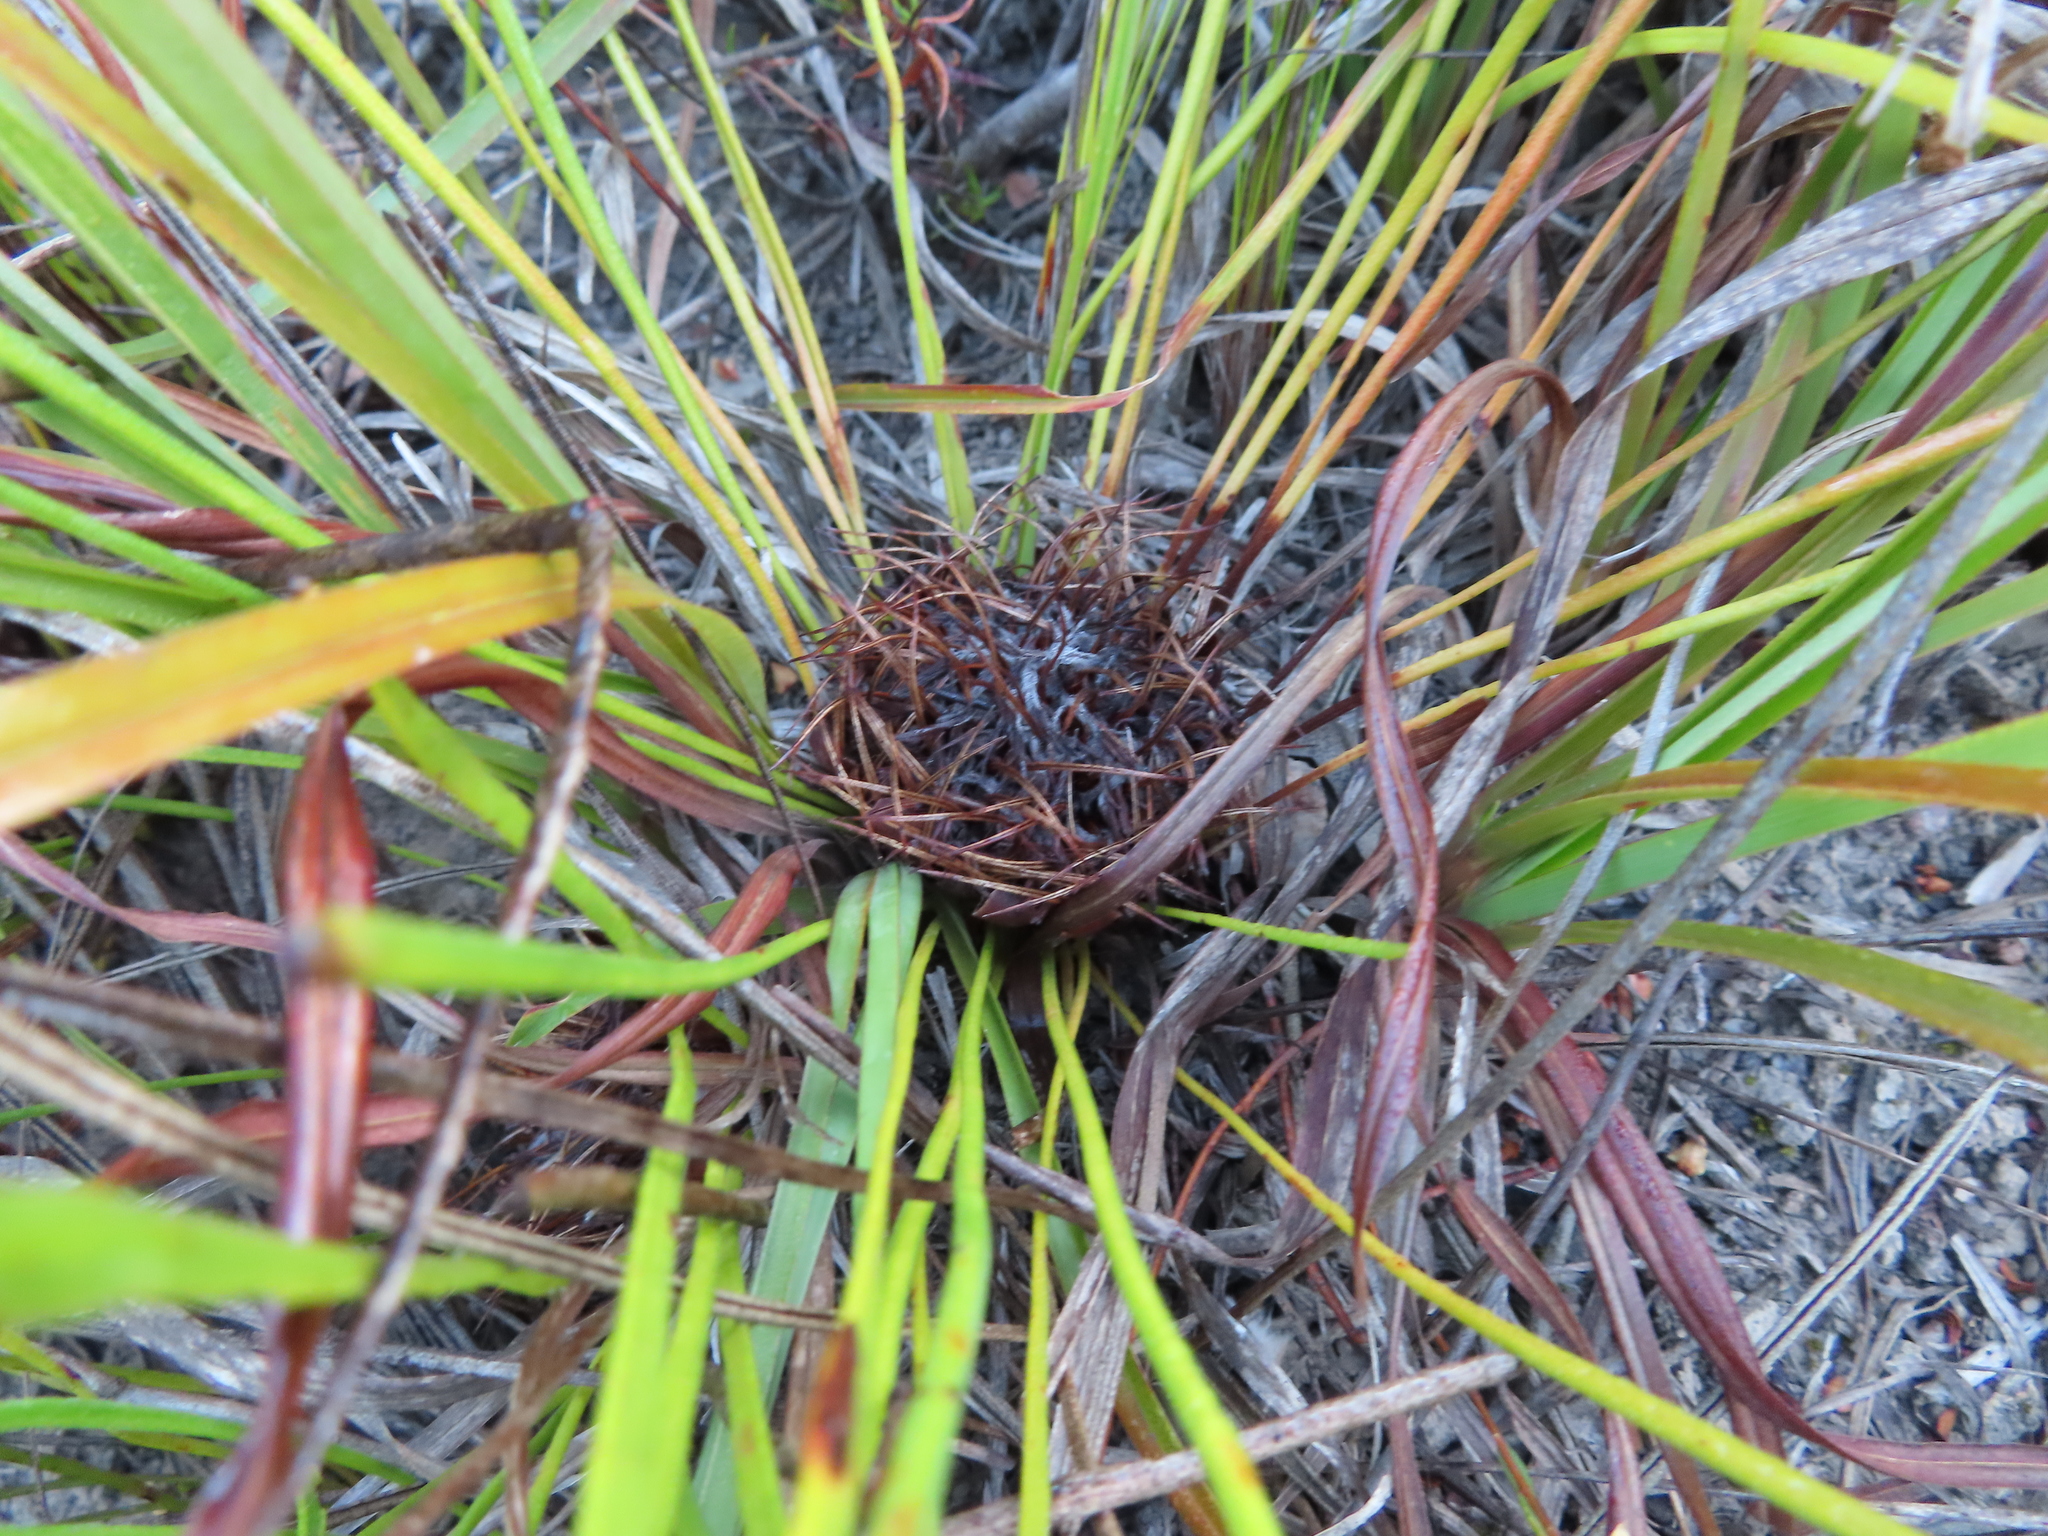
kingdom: Plantae
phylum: Tracheophyta
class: Magnoliopsida
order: Proteales
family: Proteaceae
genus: Protea
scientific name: Protea piscina
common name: Visgat sugarbush
